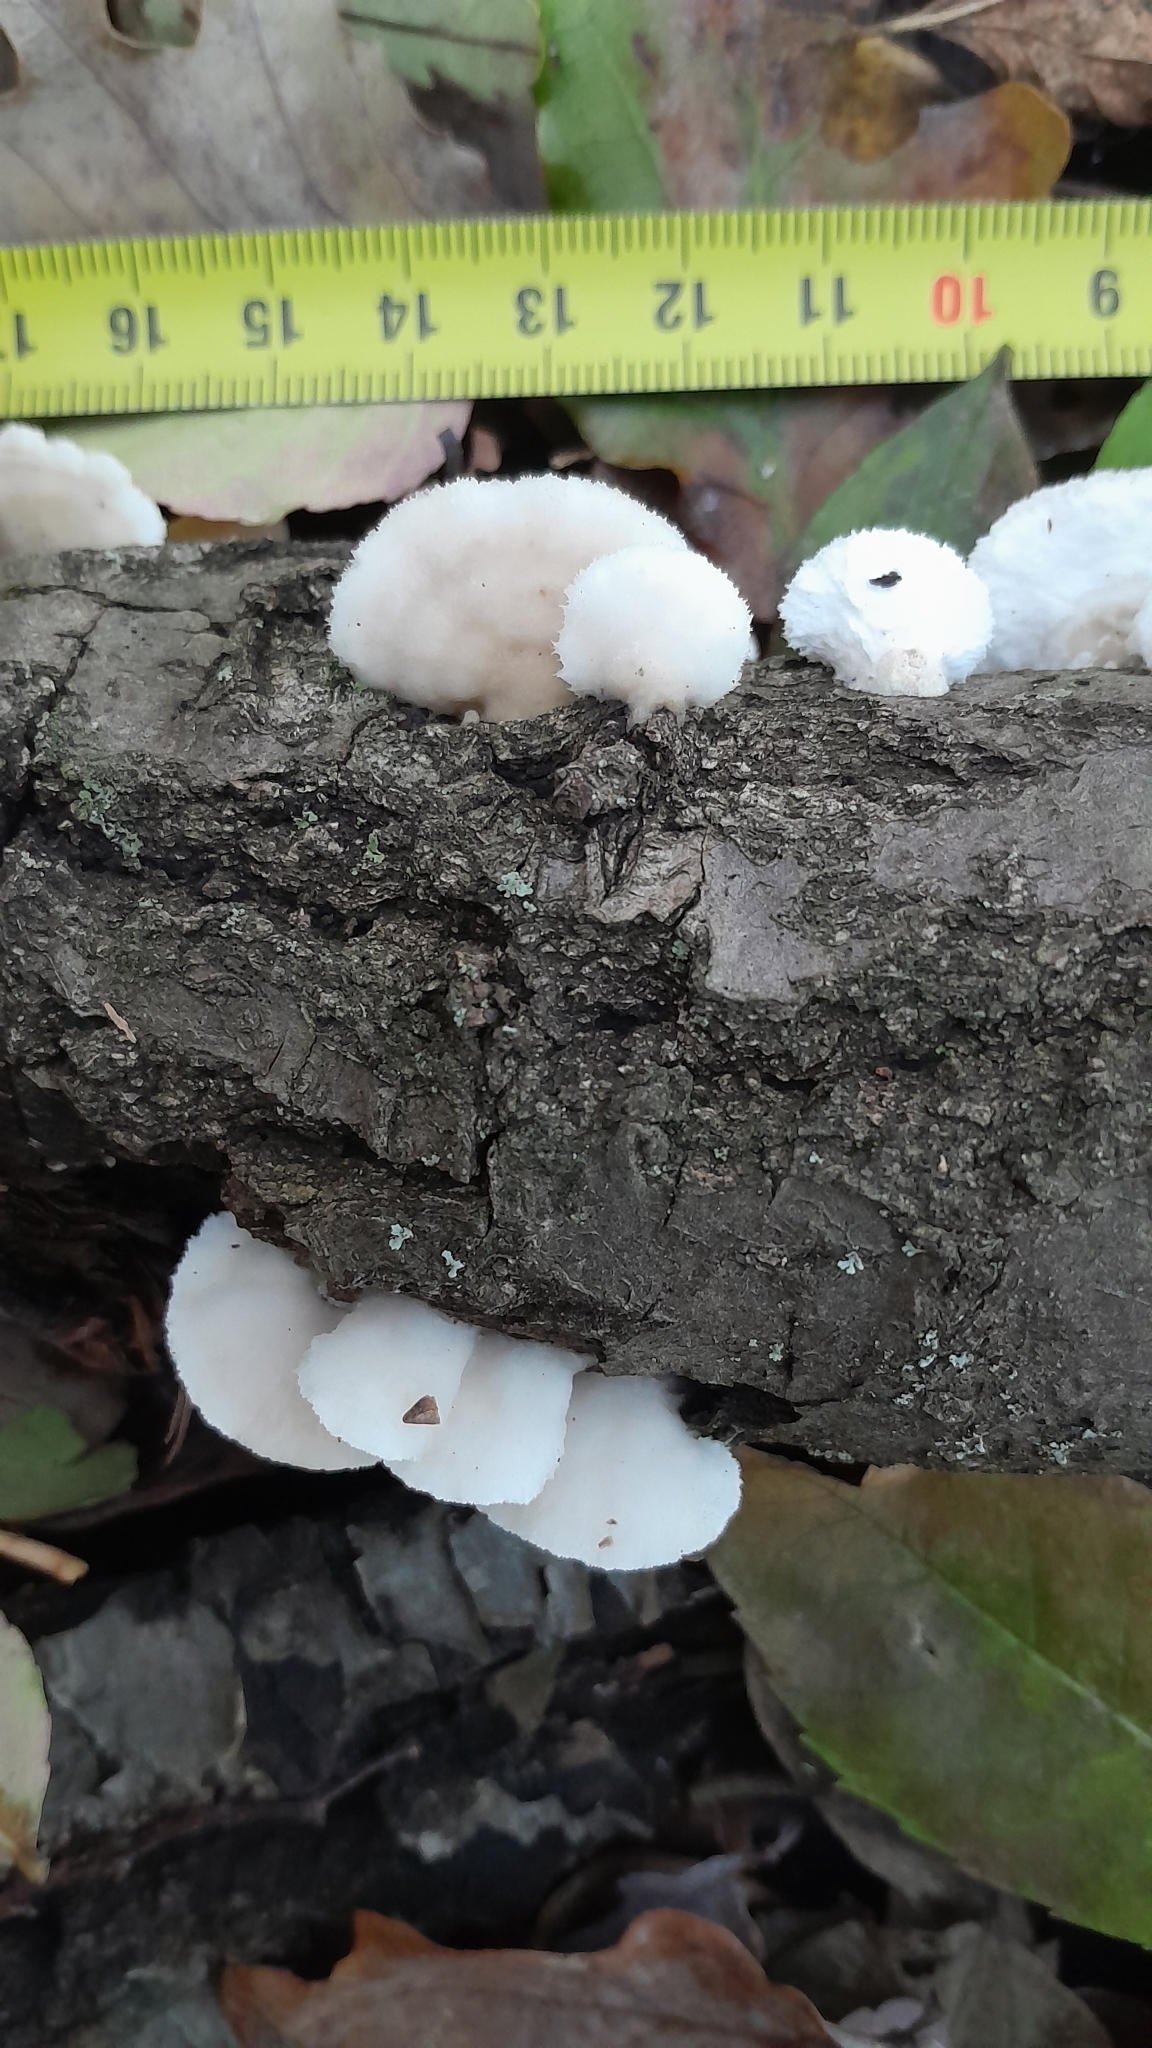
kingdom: Fungi
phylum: Basidiomycota
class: Agaricomycetes
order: Polyporales
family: Irpicaceae
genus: Vitreoporus
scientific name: Vitreoporus dichrous
